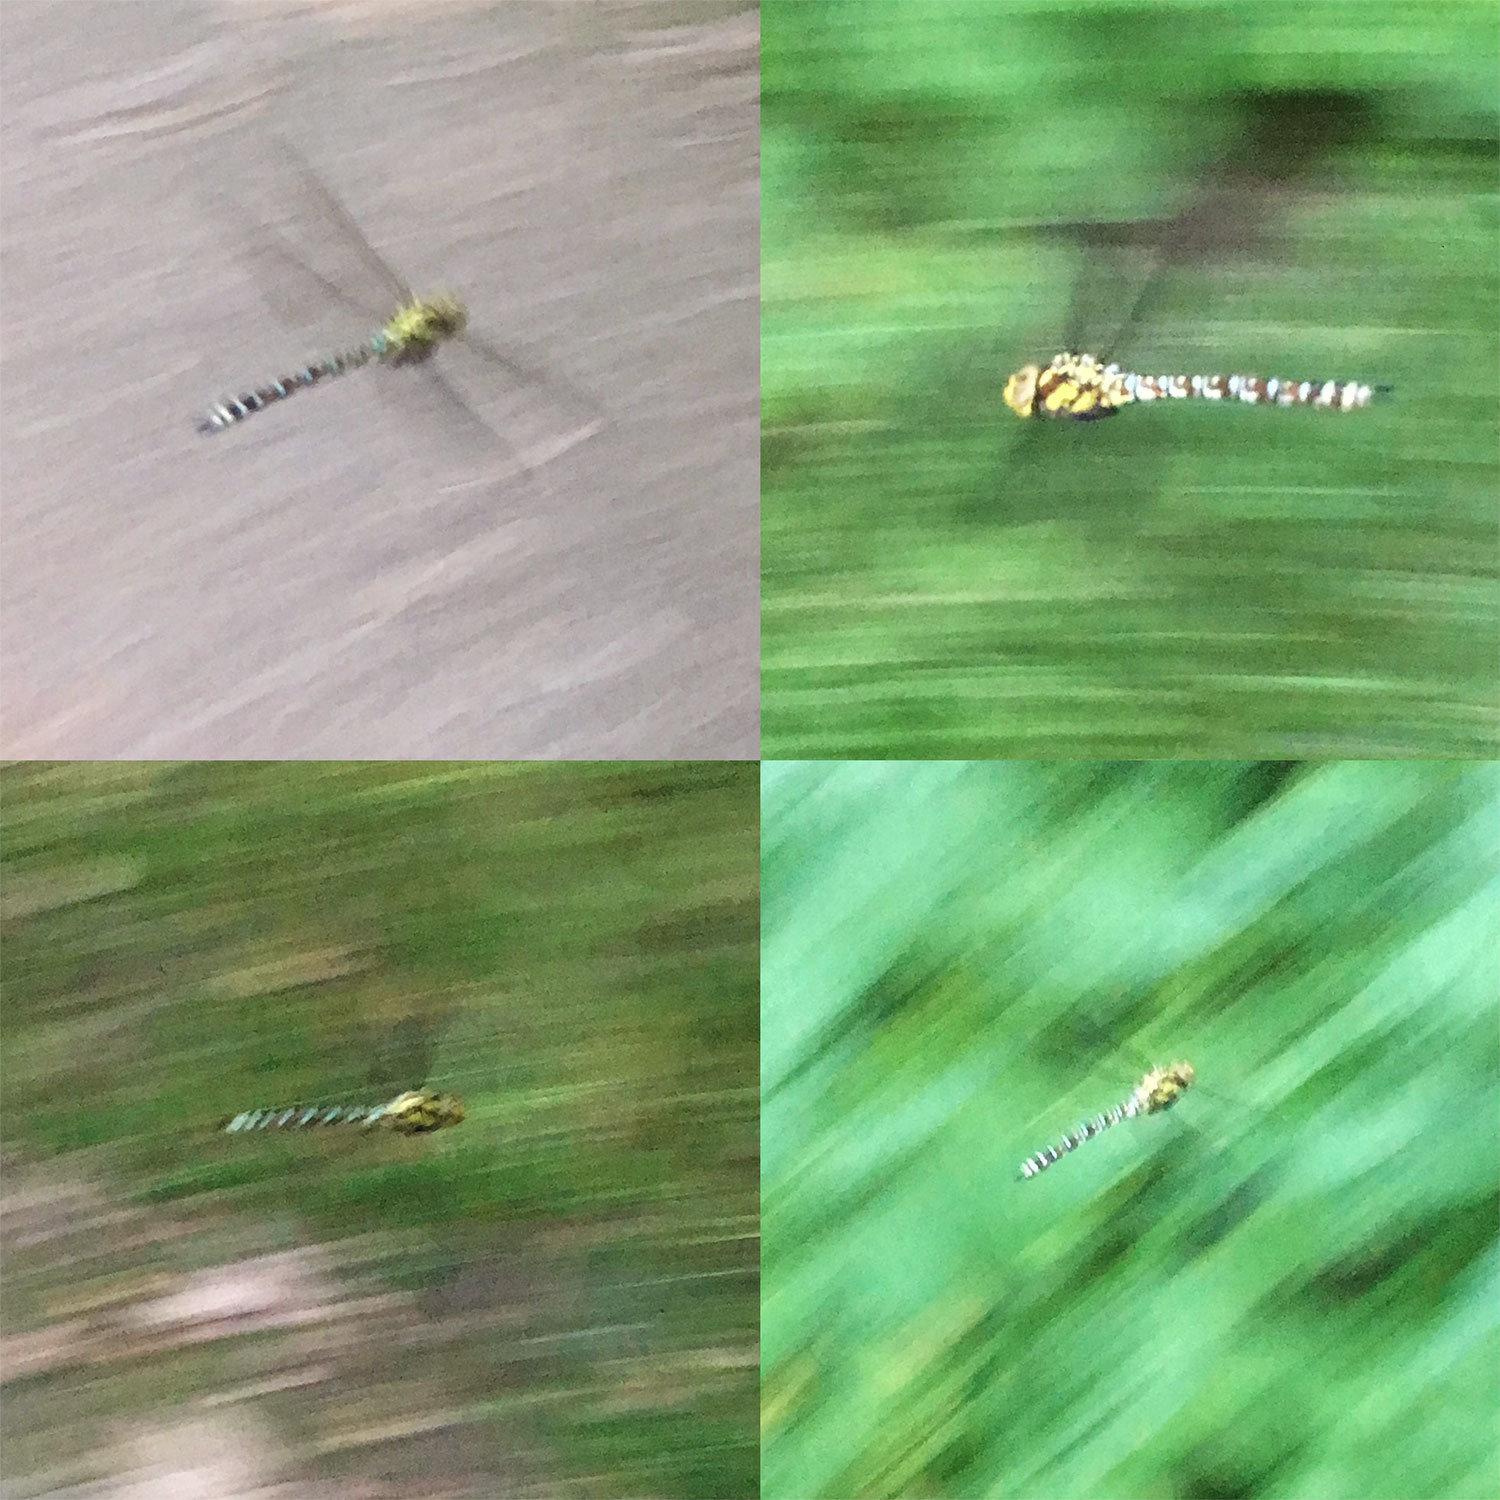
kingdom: Animalia
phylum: Arthropoda
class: Insecta
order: Odonata
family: Aeshnidae
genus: Aeshna
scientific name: Aeshna cyanea
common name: Southern hawker
